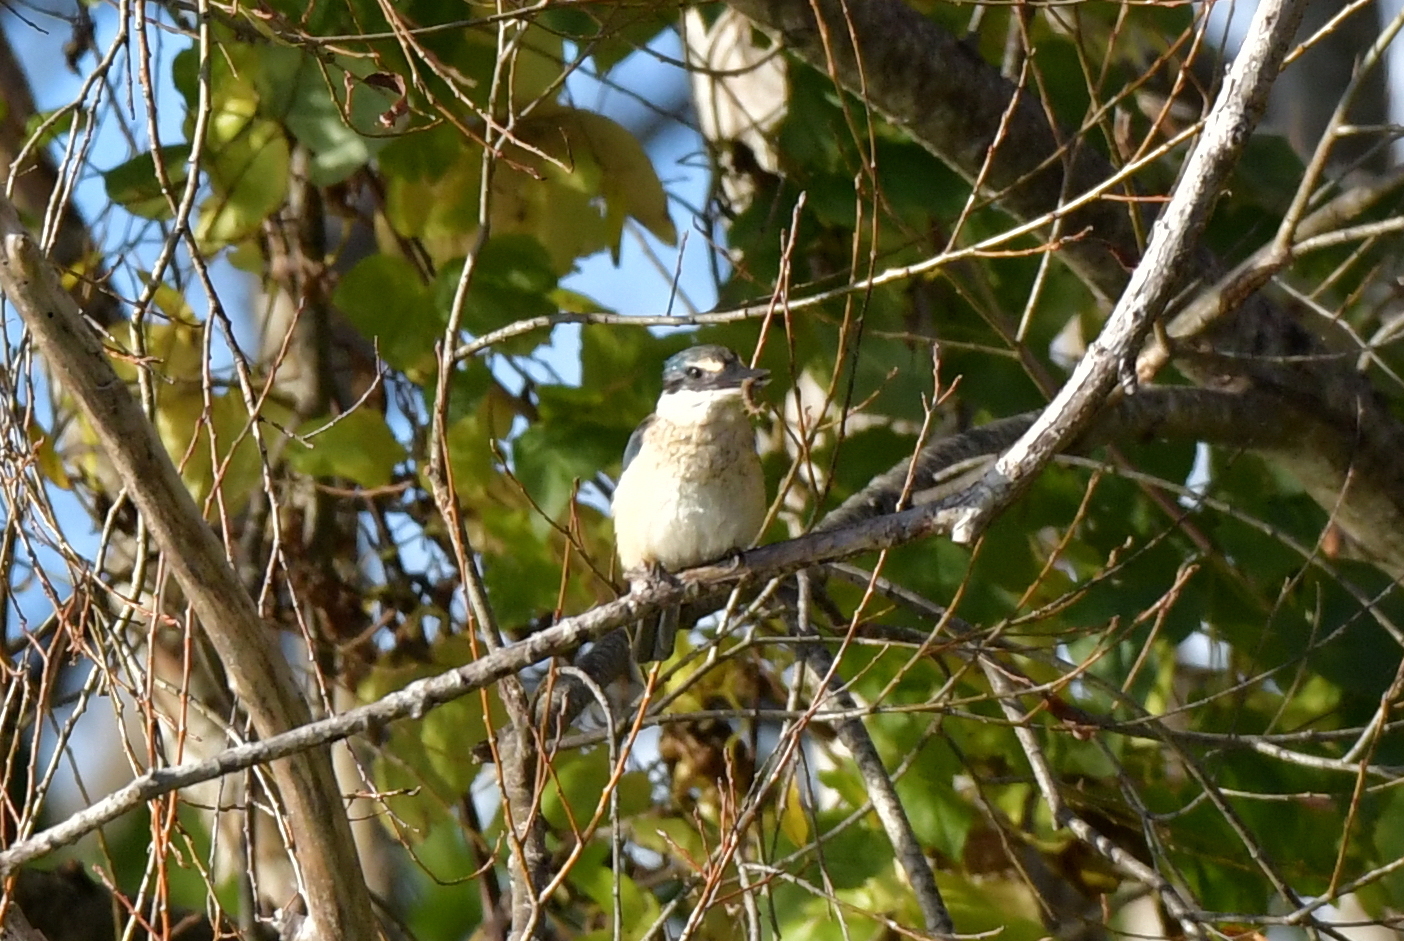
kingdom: Animalia
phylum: Chordata
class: Aves
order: Coraciiformes
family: Alcedinidae
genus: Todiramphus
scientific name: Todiramphus sanctus
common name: Sacred kingfisher
